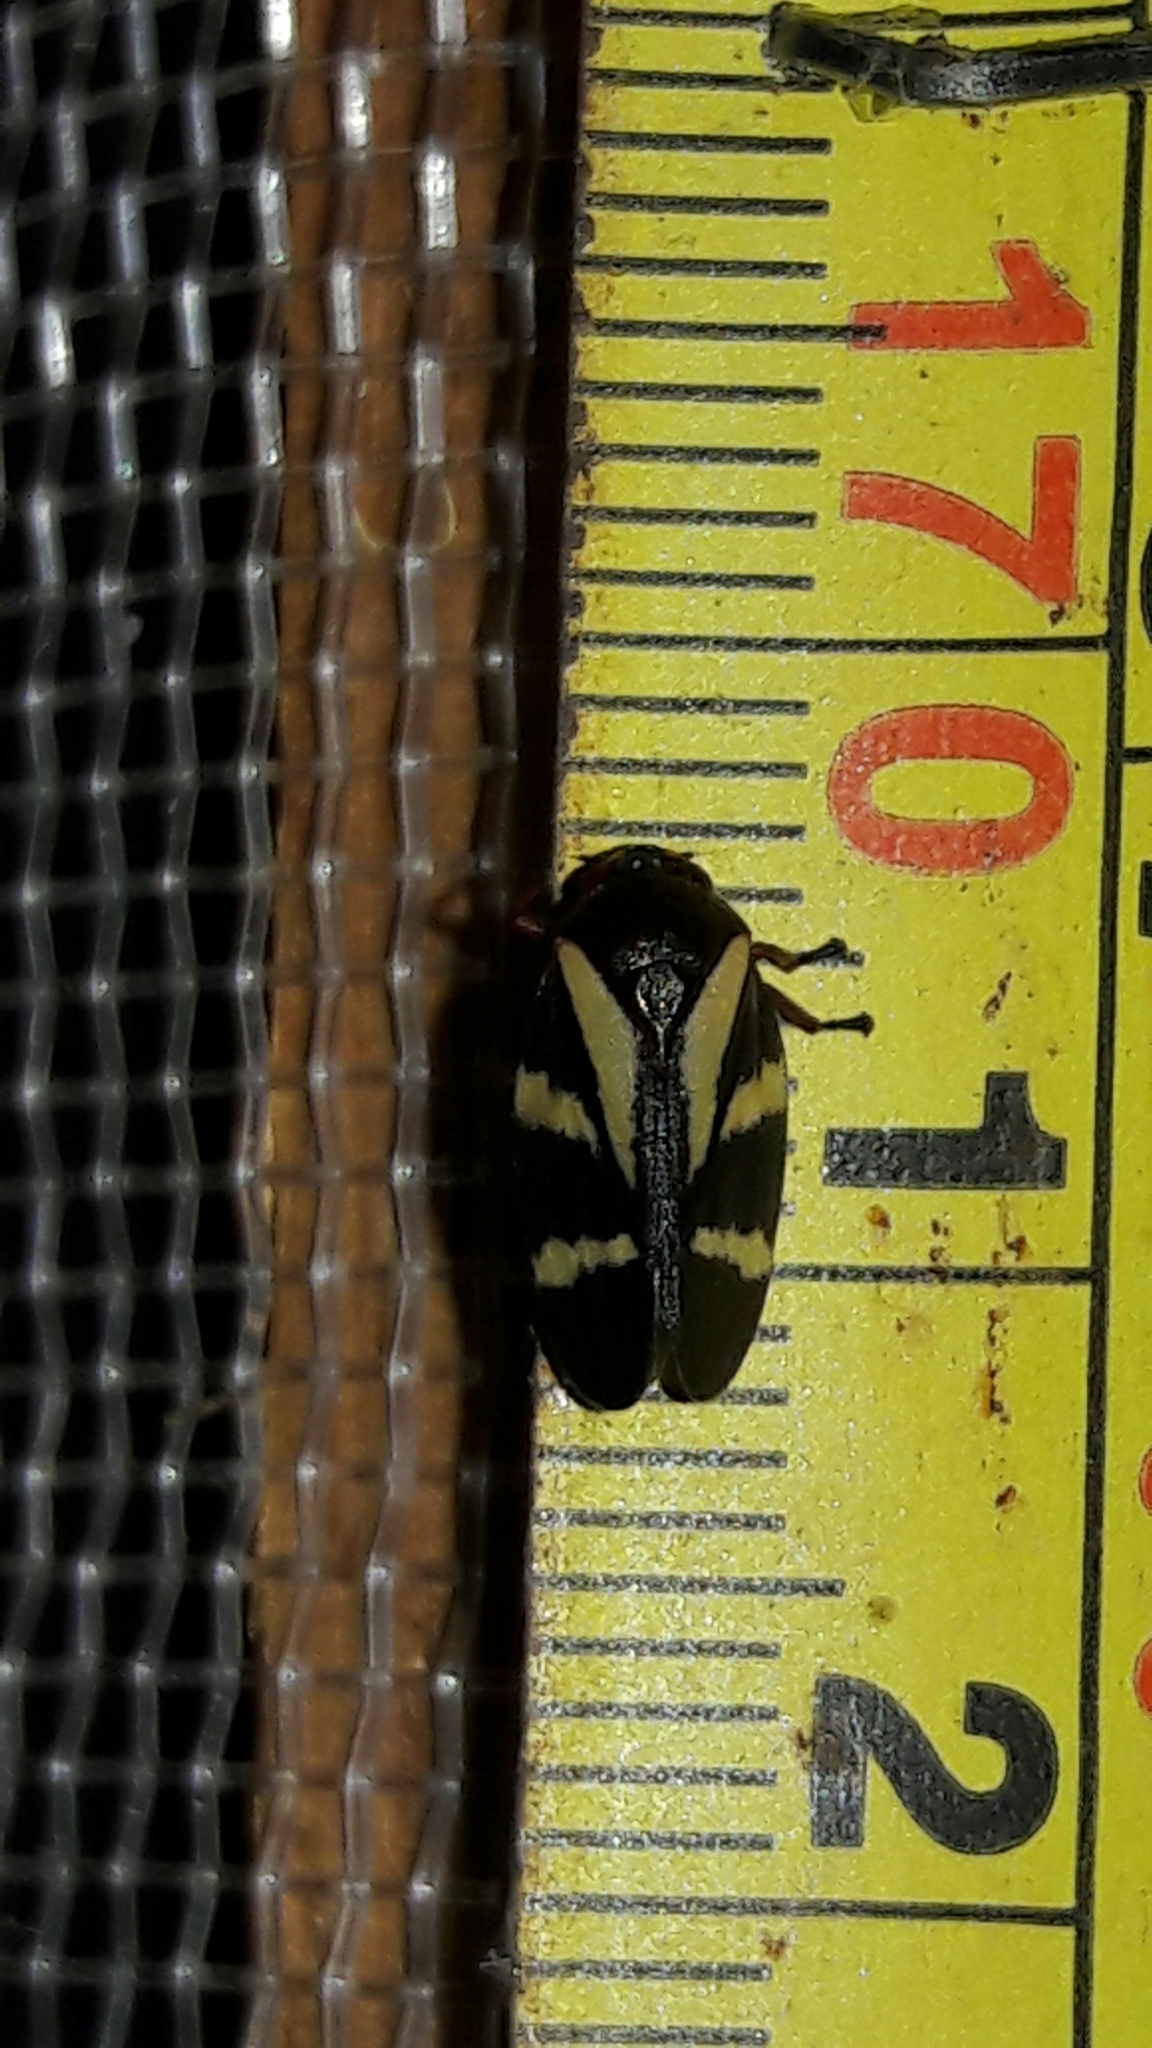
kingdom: Animalia
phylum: Arthropoda
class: Insecta
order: Hemiptera
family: Cercopidae
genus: Deois
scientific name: Deois flavopicta
